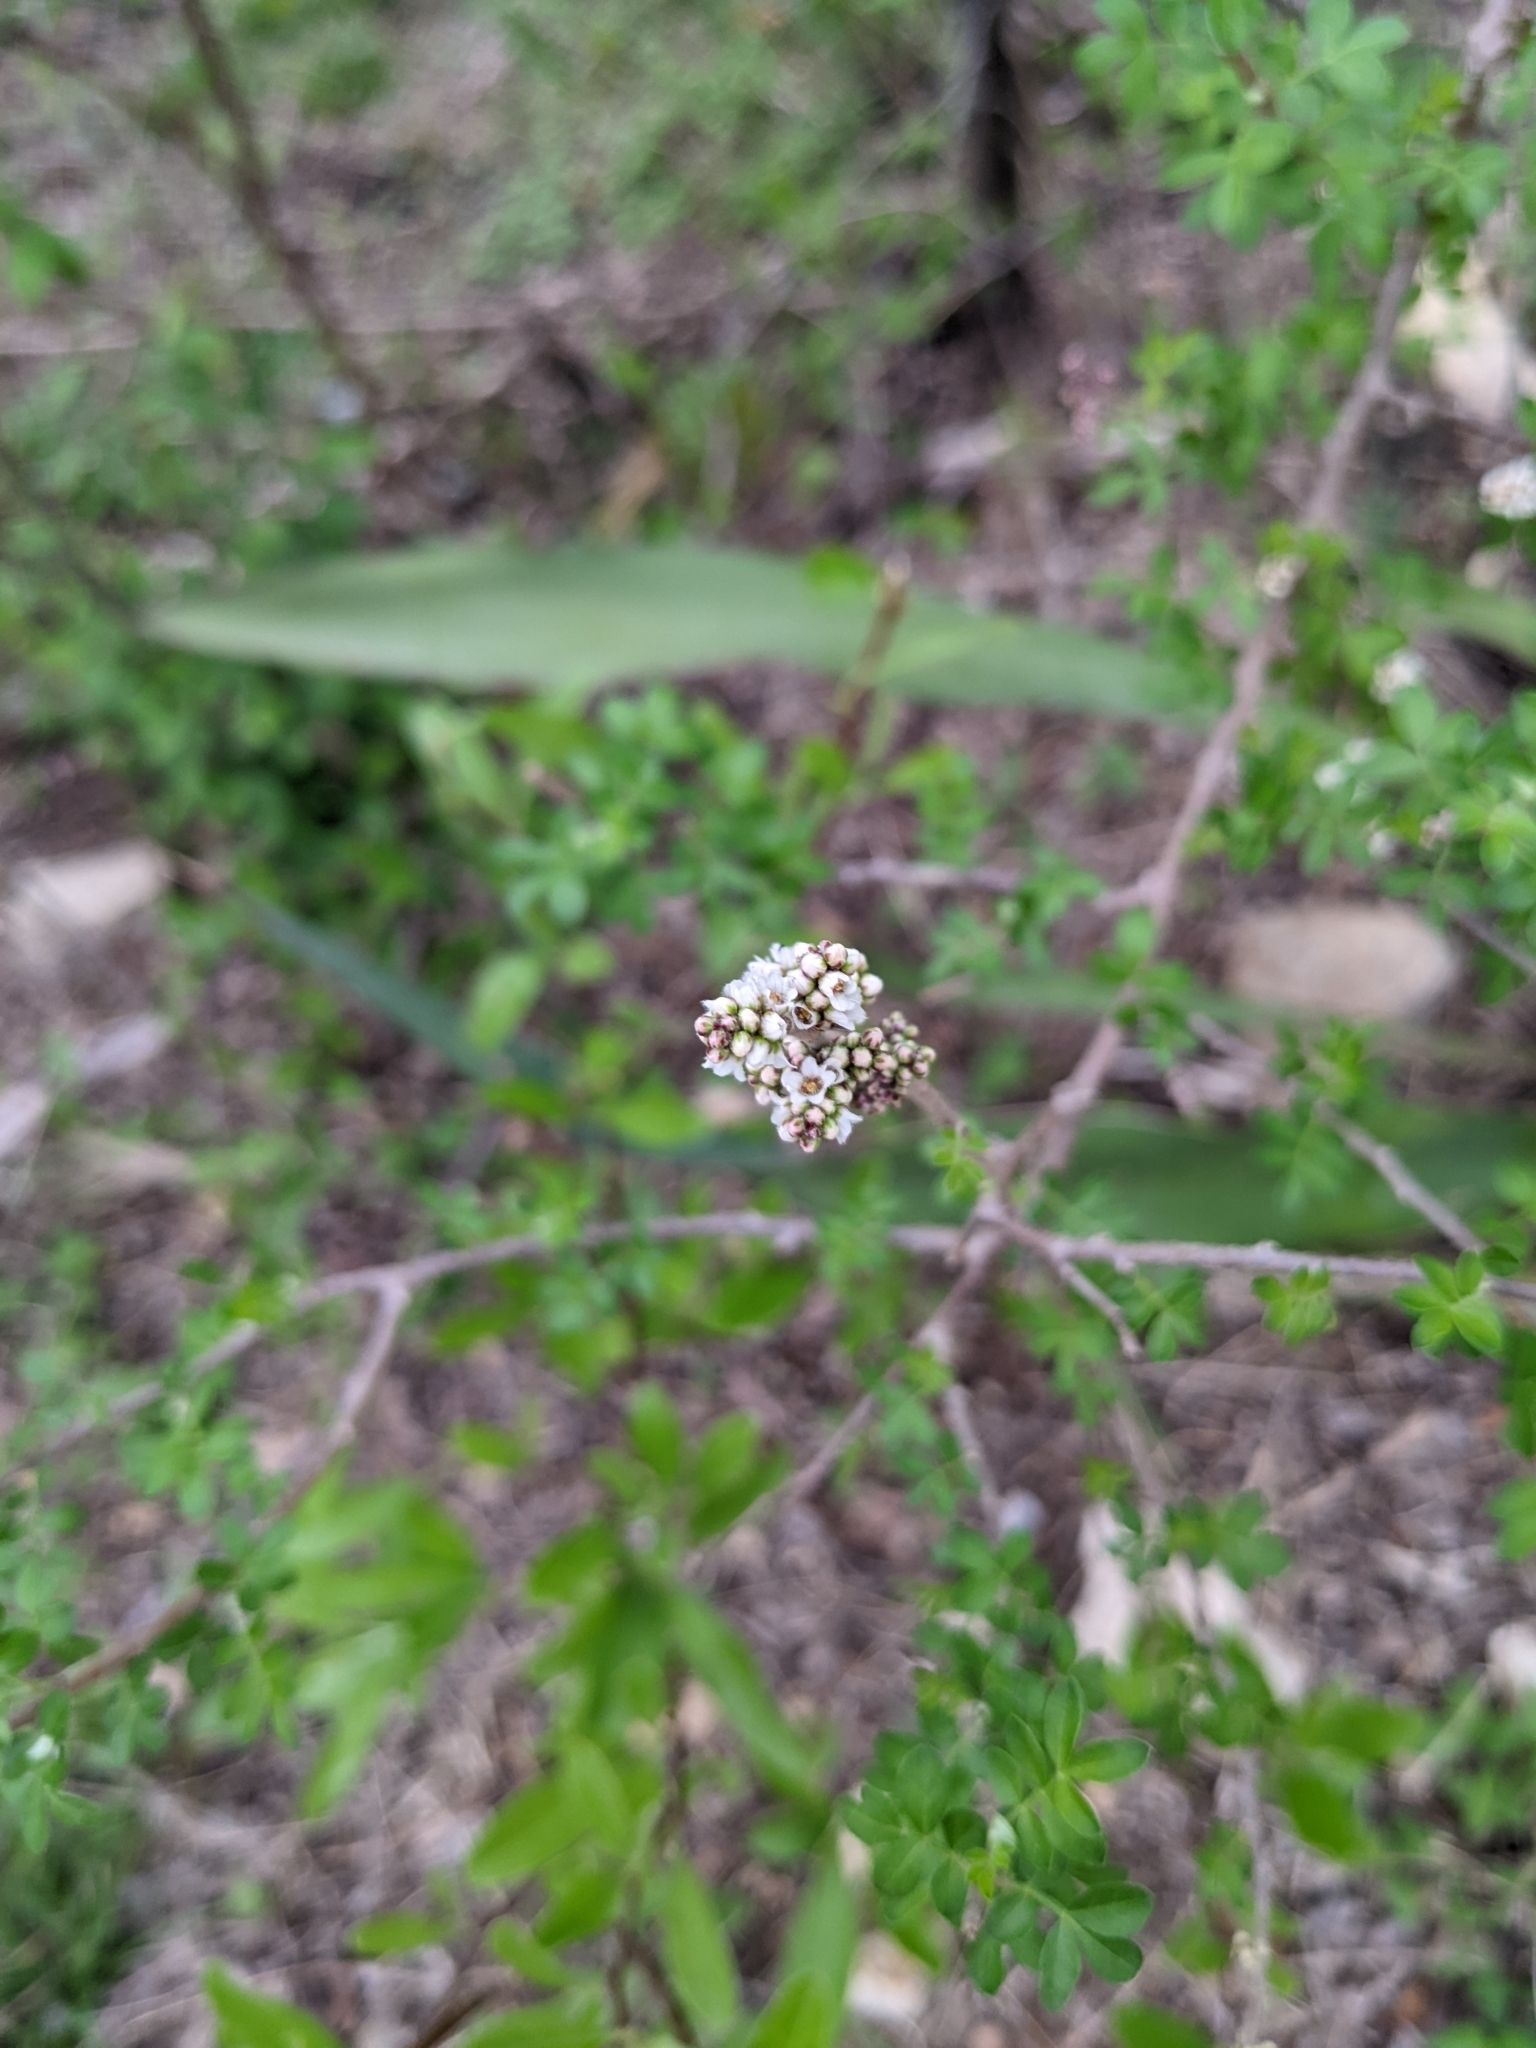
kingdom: Plantae
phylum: Tracheophyta
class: Magnoliopsida
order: Sapindales
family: Anacardiaceae
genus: Rhus
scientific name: Rhus microphylla
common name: Desert sumac
